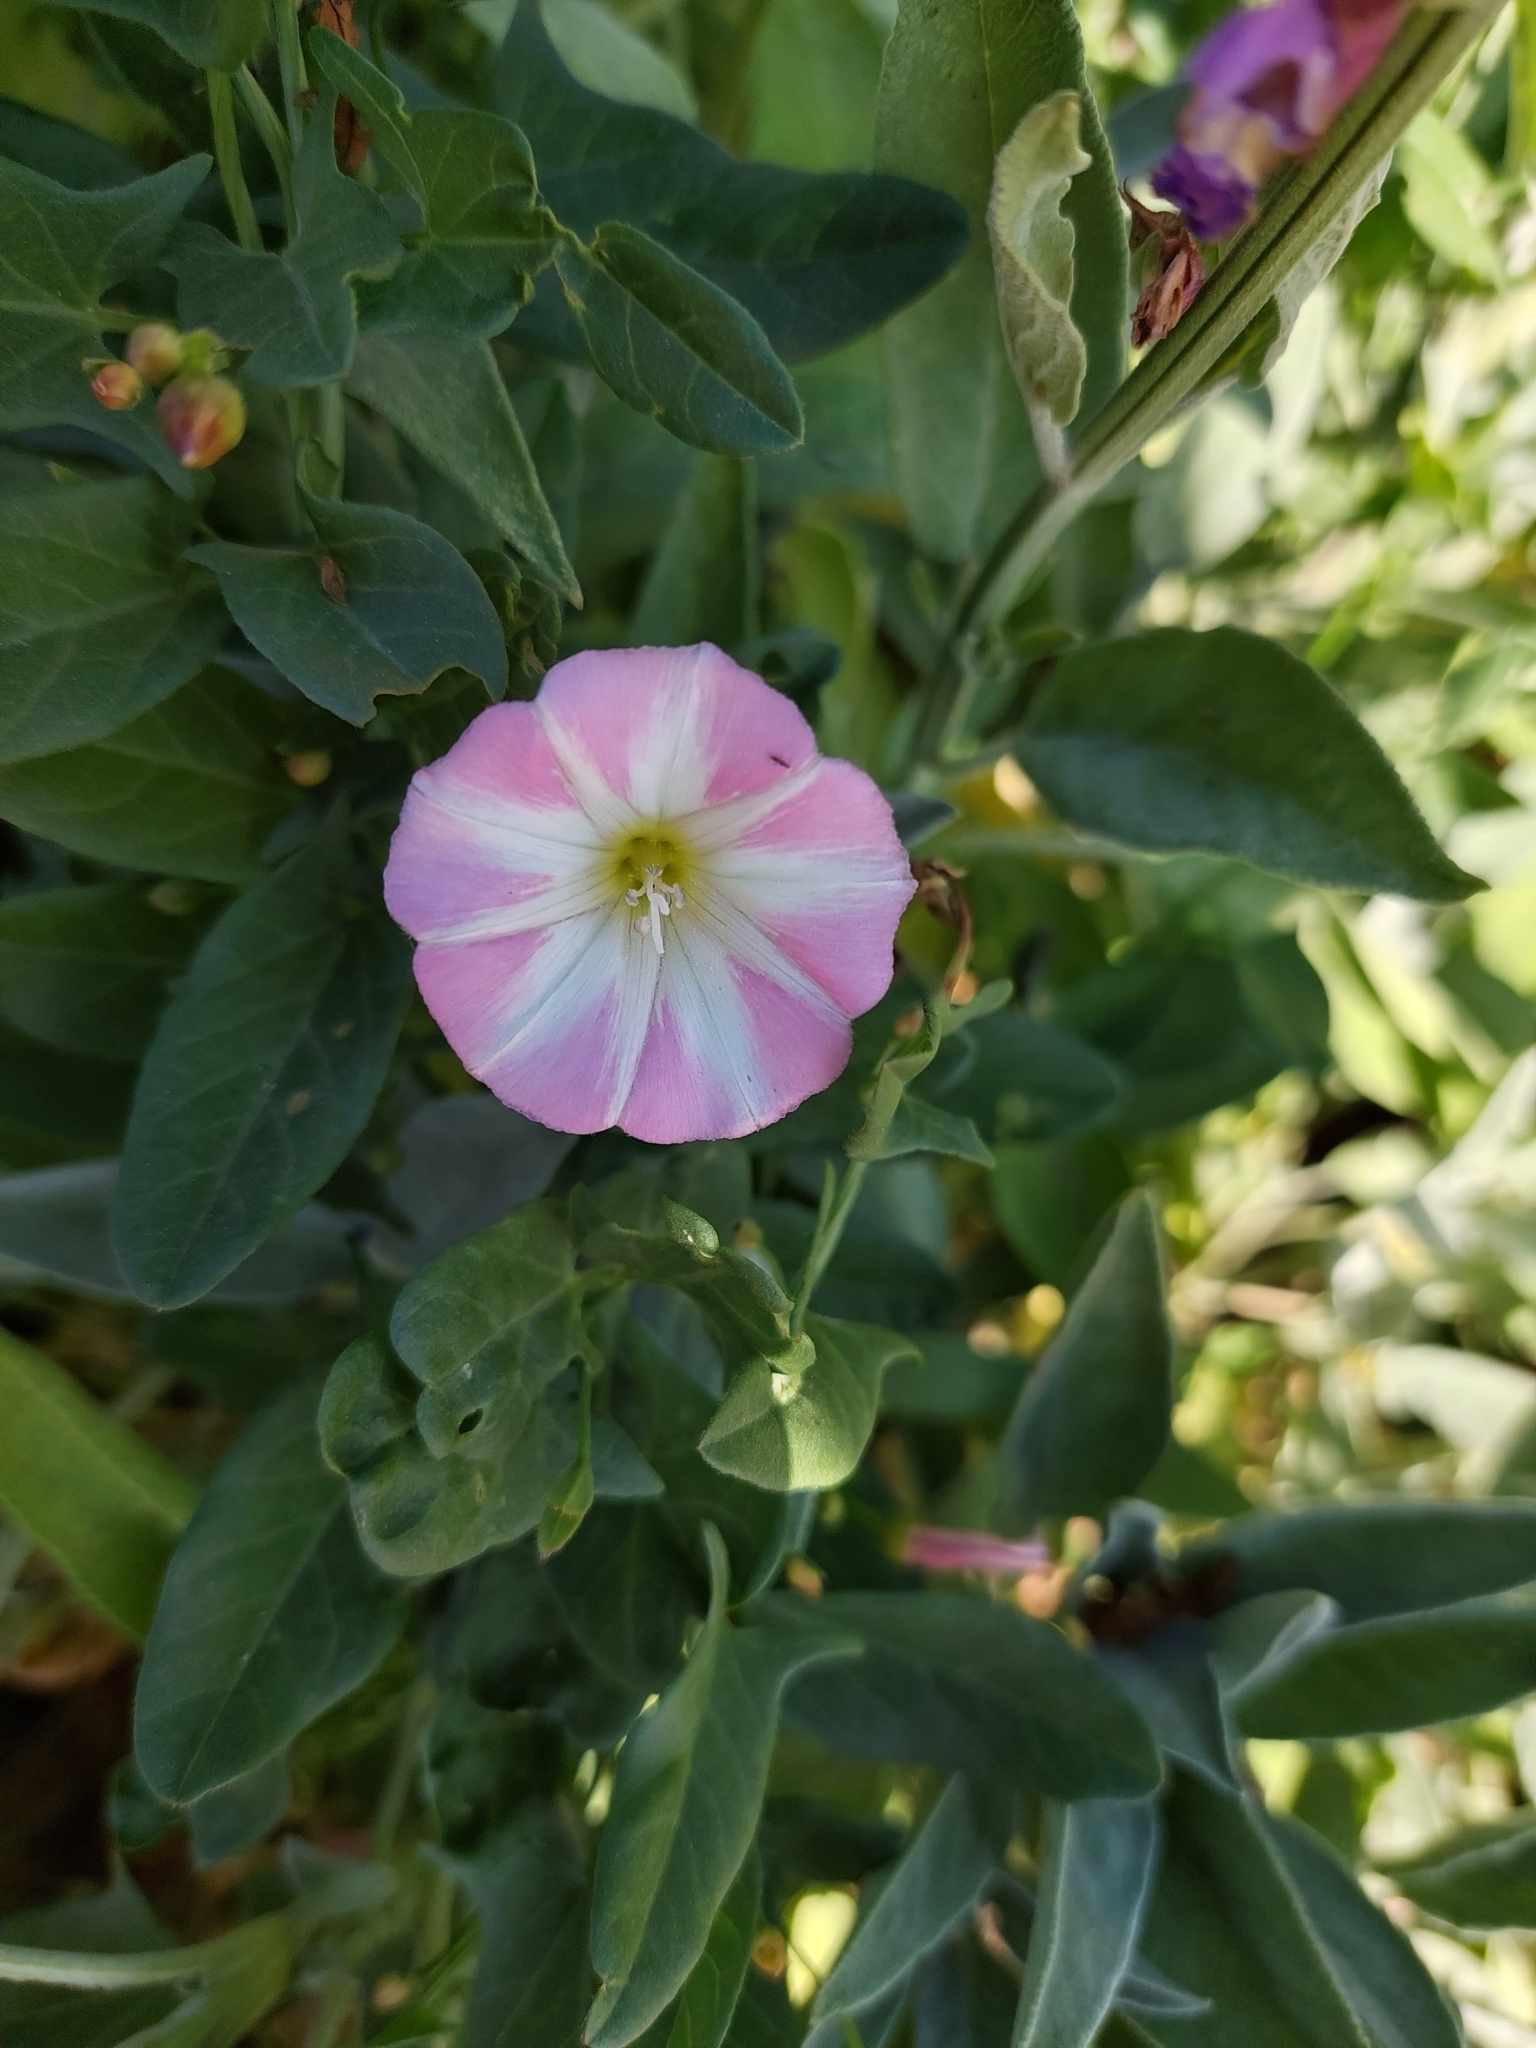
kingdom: Plantae
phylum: Tracheophyta
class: Magnoliopsida
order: Solanales
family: Convolvulaceae
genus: Convolvulus
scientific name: Convolvulus arvensis
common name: Field bindweed
